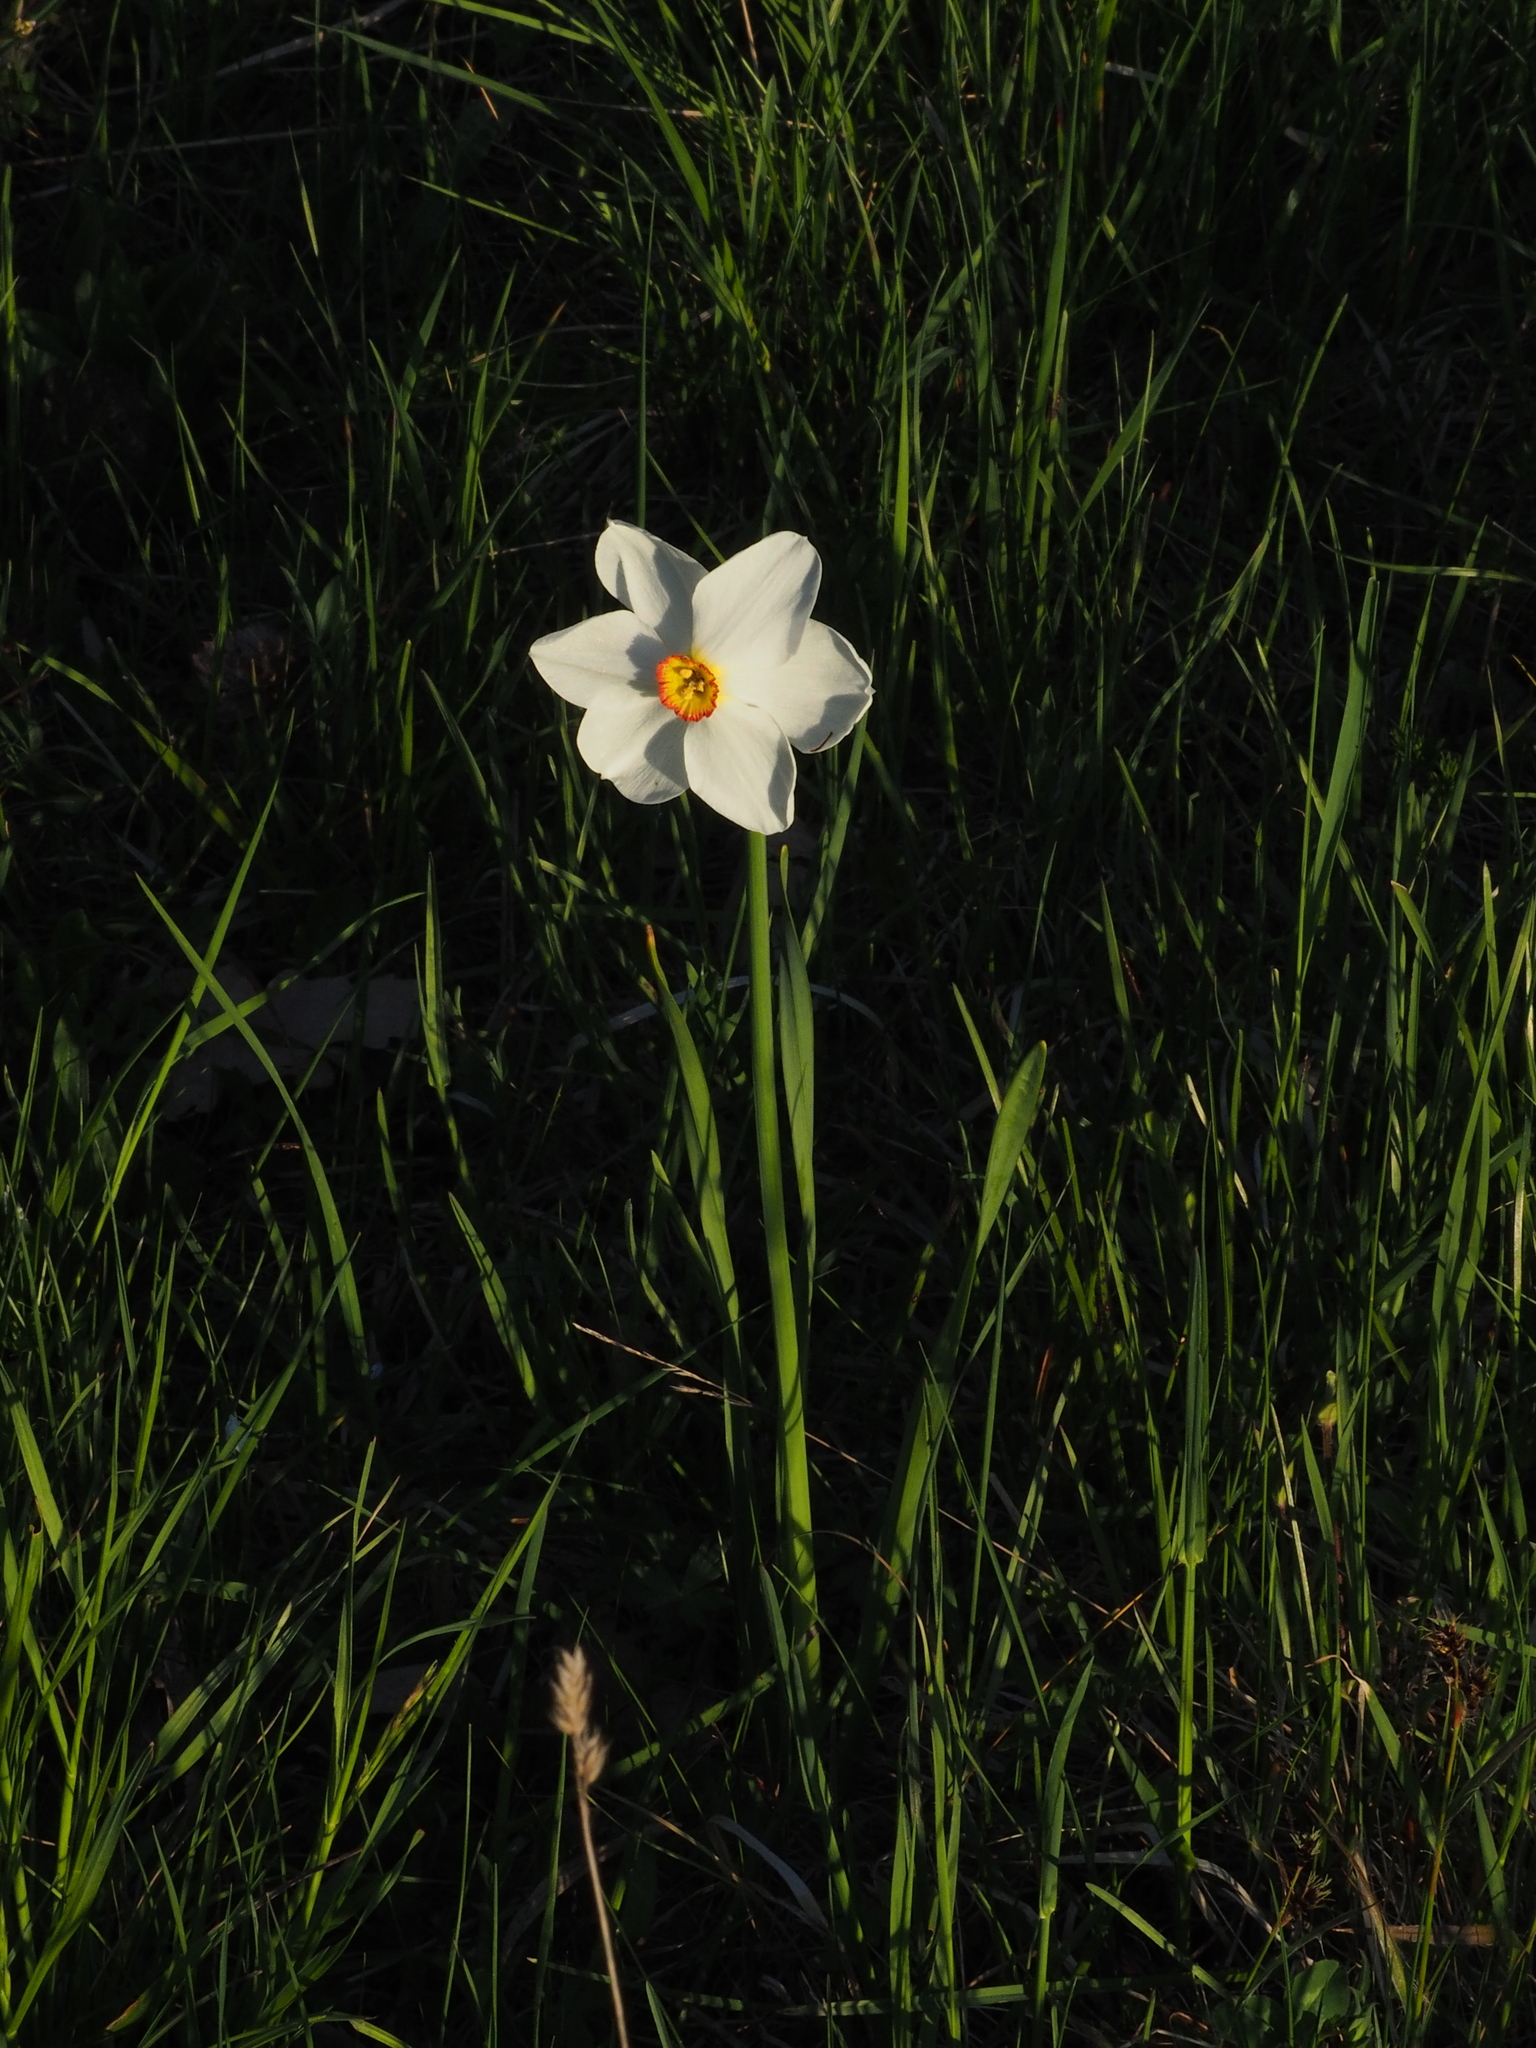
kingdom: Plantae
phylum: Tracheophyta
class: Liliopsida
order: Asparagales
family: Amaryllidaceae
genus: Narcissus
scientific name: Narcissus poeticus
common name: Pheasant's-eye daffodil
